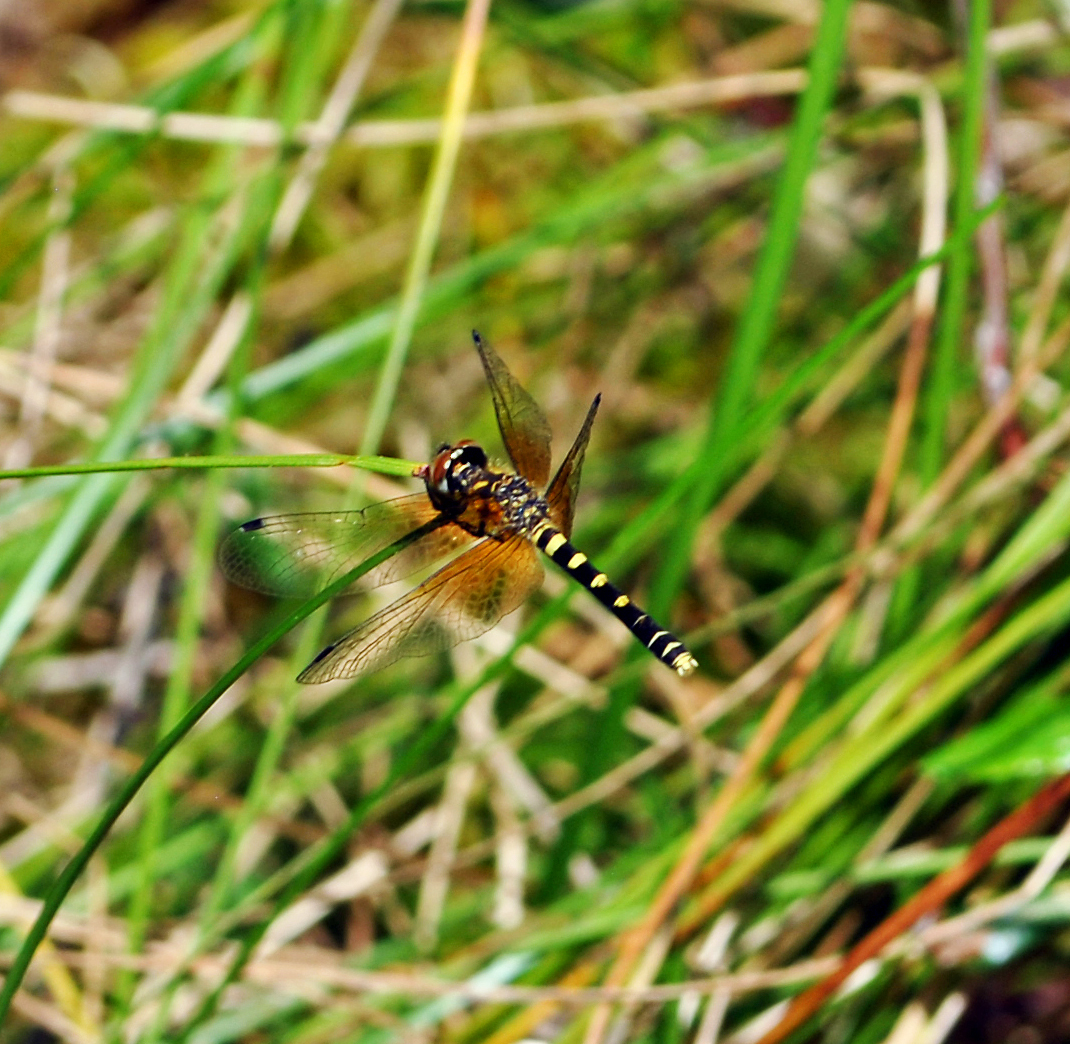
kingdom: Animalia
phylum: Arthropoda
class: Insecta
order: Odonata
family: Libellulidae
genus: Nannothemis
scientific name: Nannothemis bella
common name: Elfin skimmer
